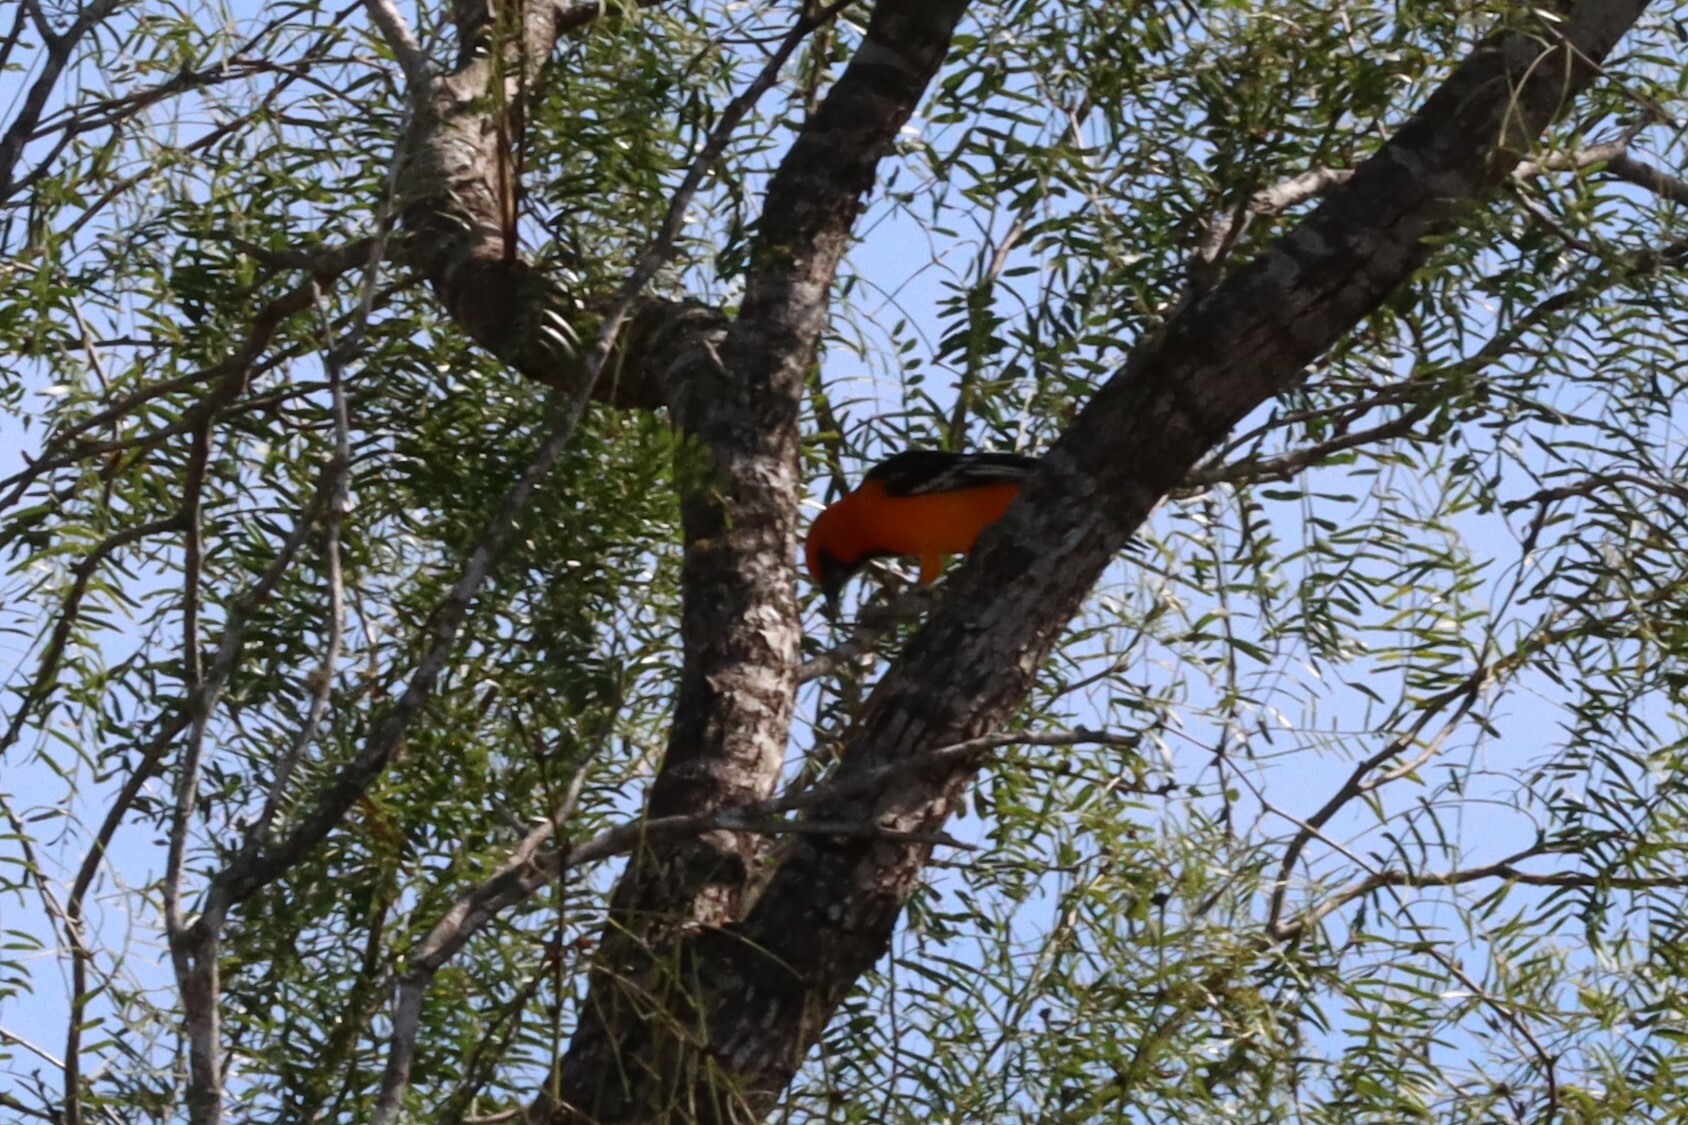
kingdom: Animalia
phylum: Chordata
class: Aves
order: Passeriformes
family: Icteridae
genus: Icterus
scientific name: Icterus gularis
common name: Altamira oriole
